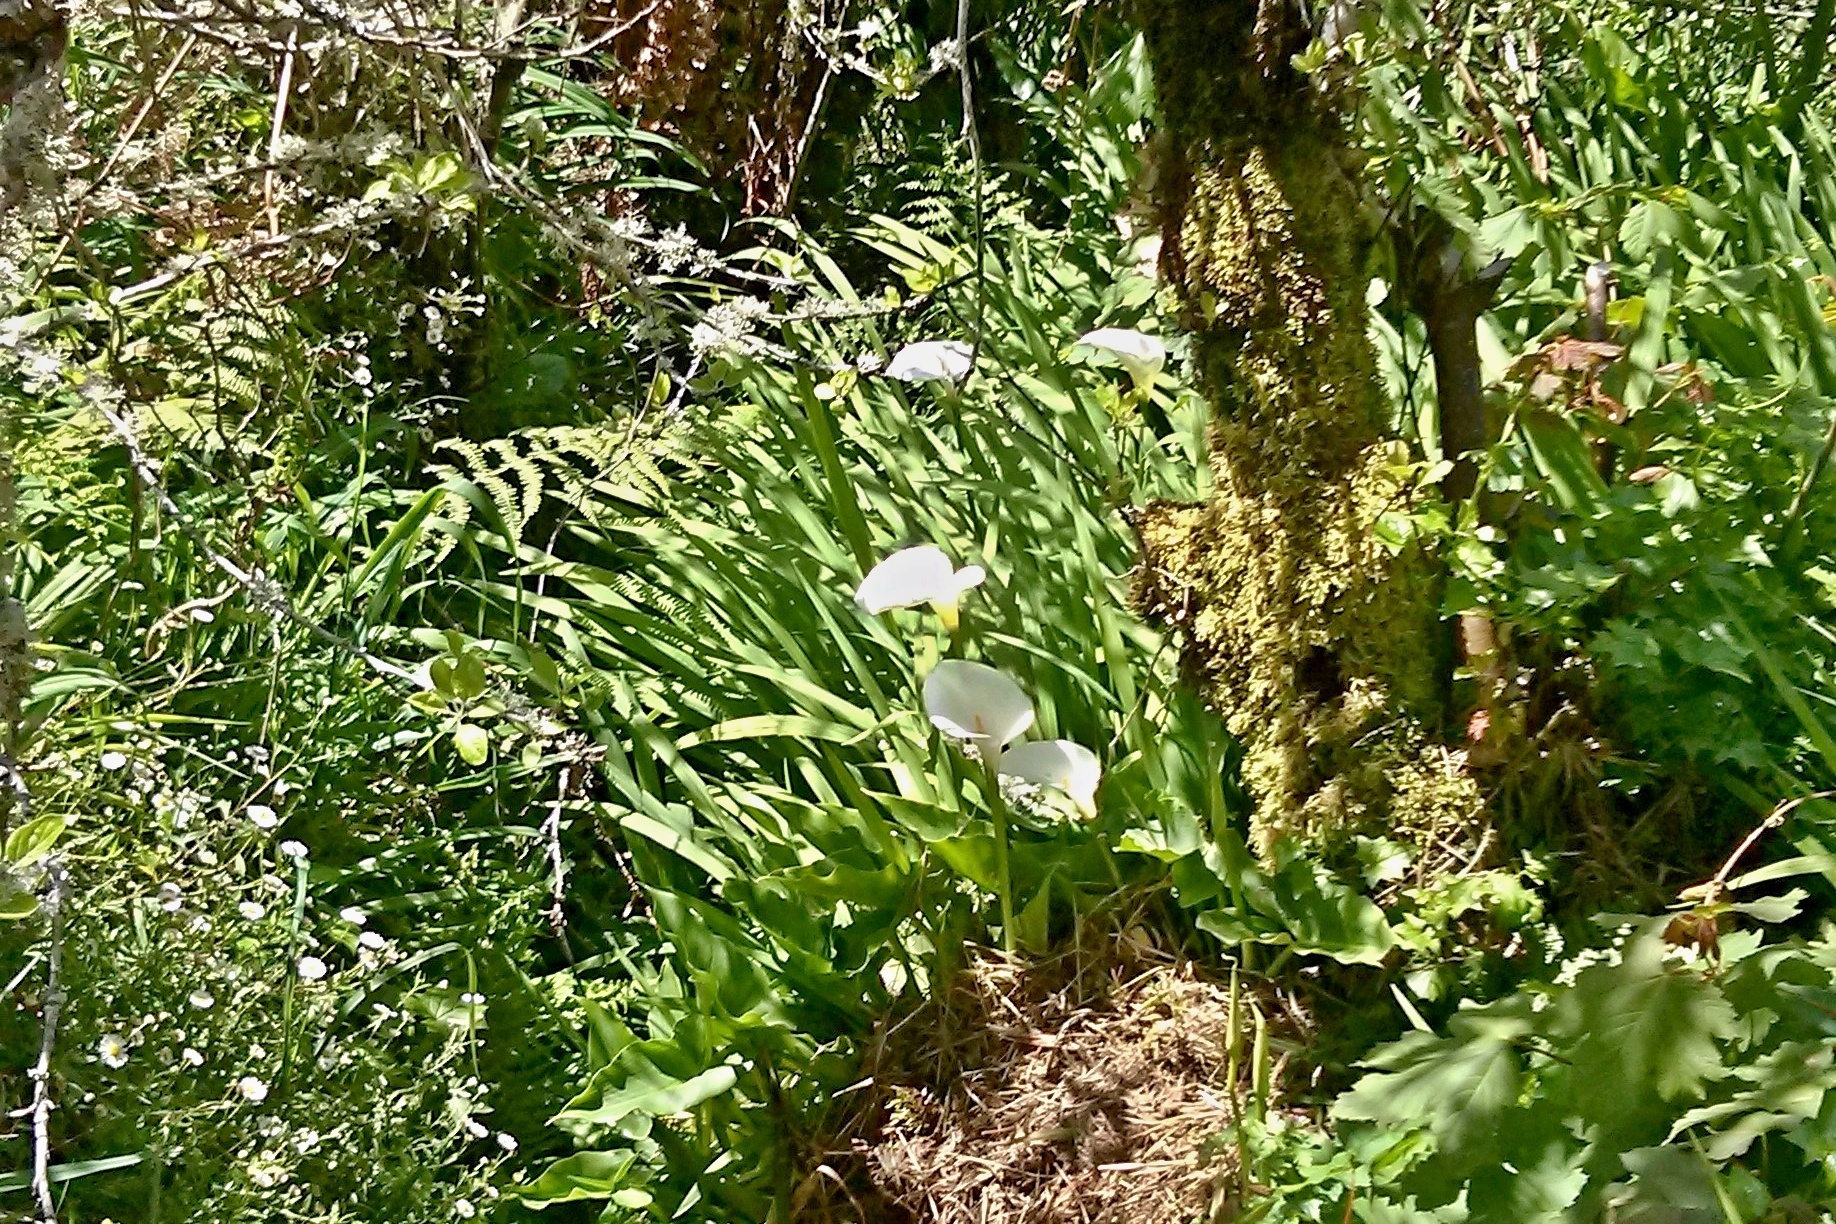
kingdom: Plantae
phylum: Tracheophyta
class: Liliopsida
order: Alismatales
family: Araceae
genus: Zantedeschia
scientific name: Zantedeschia aethiopica
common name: Altar-lily
